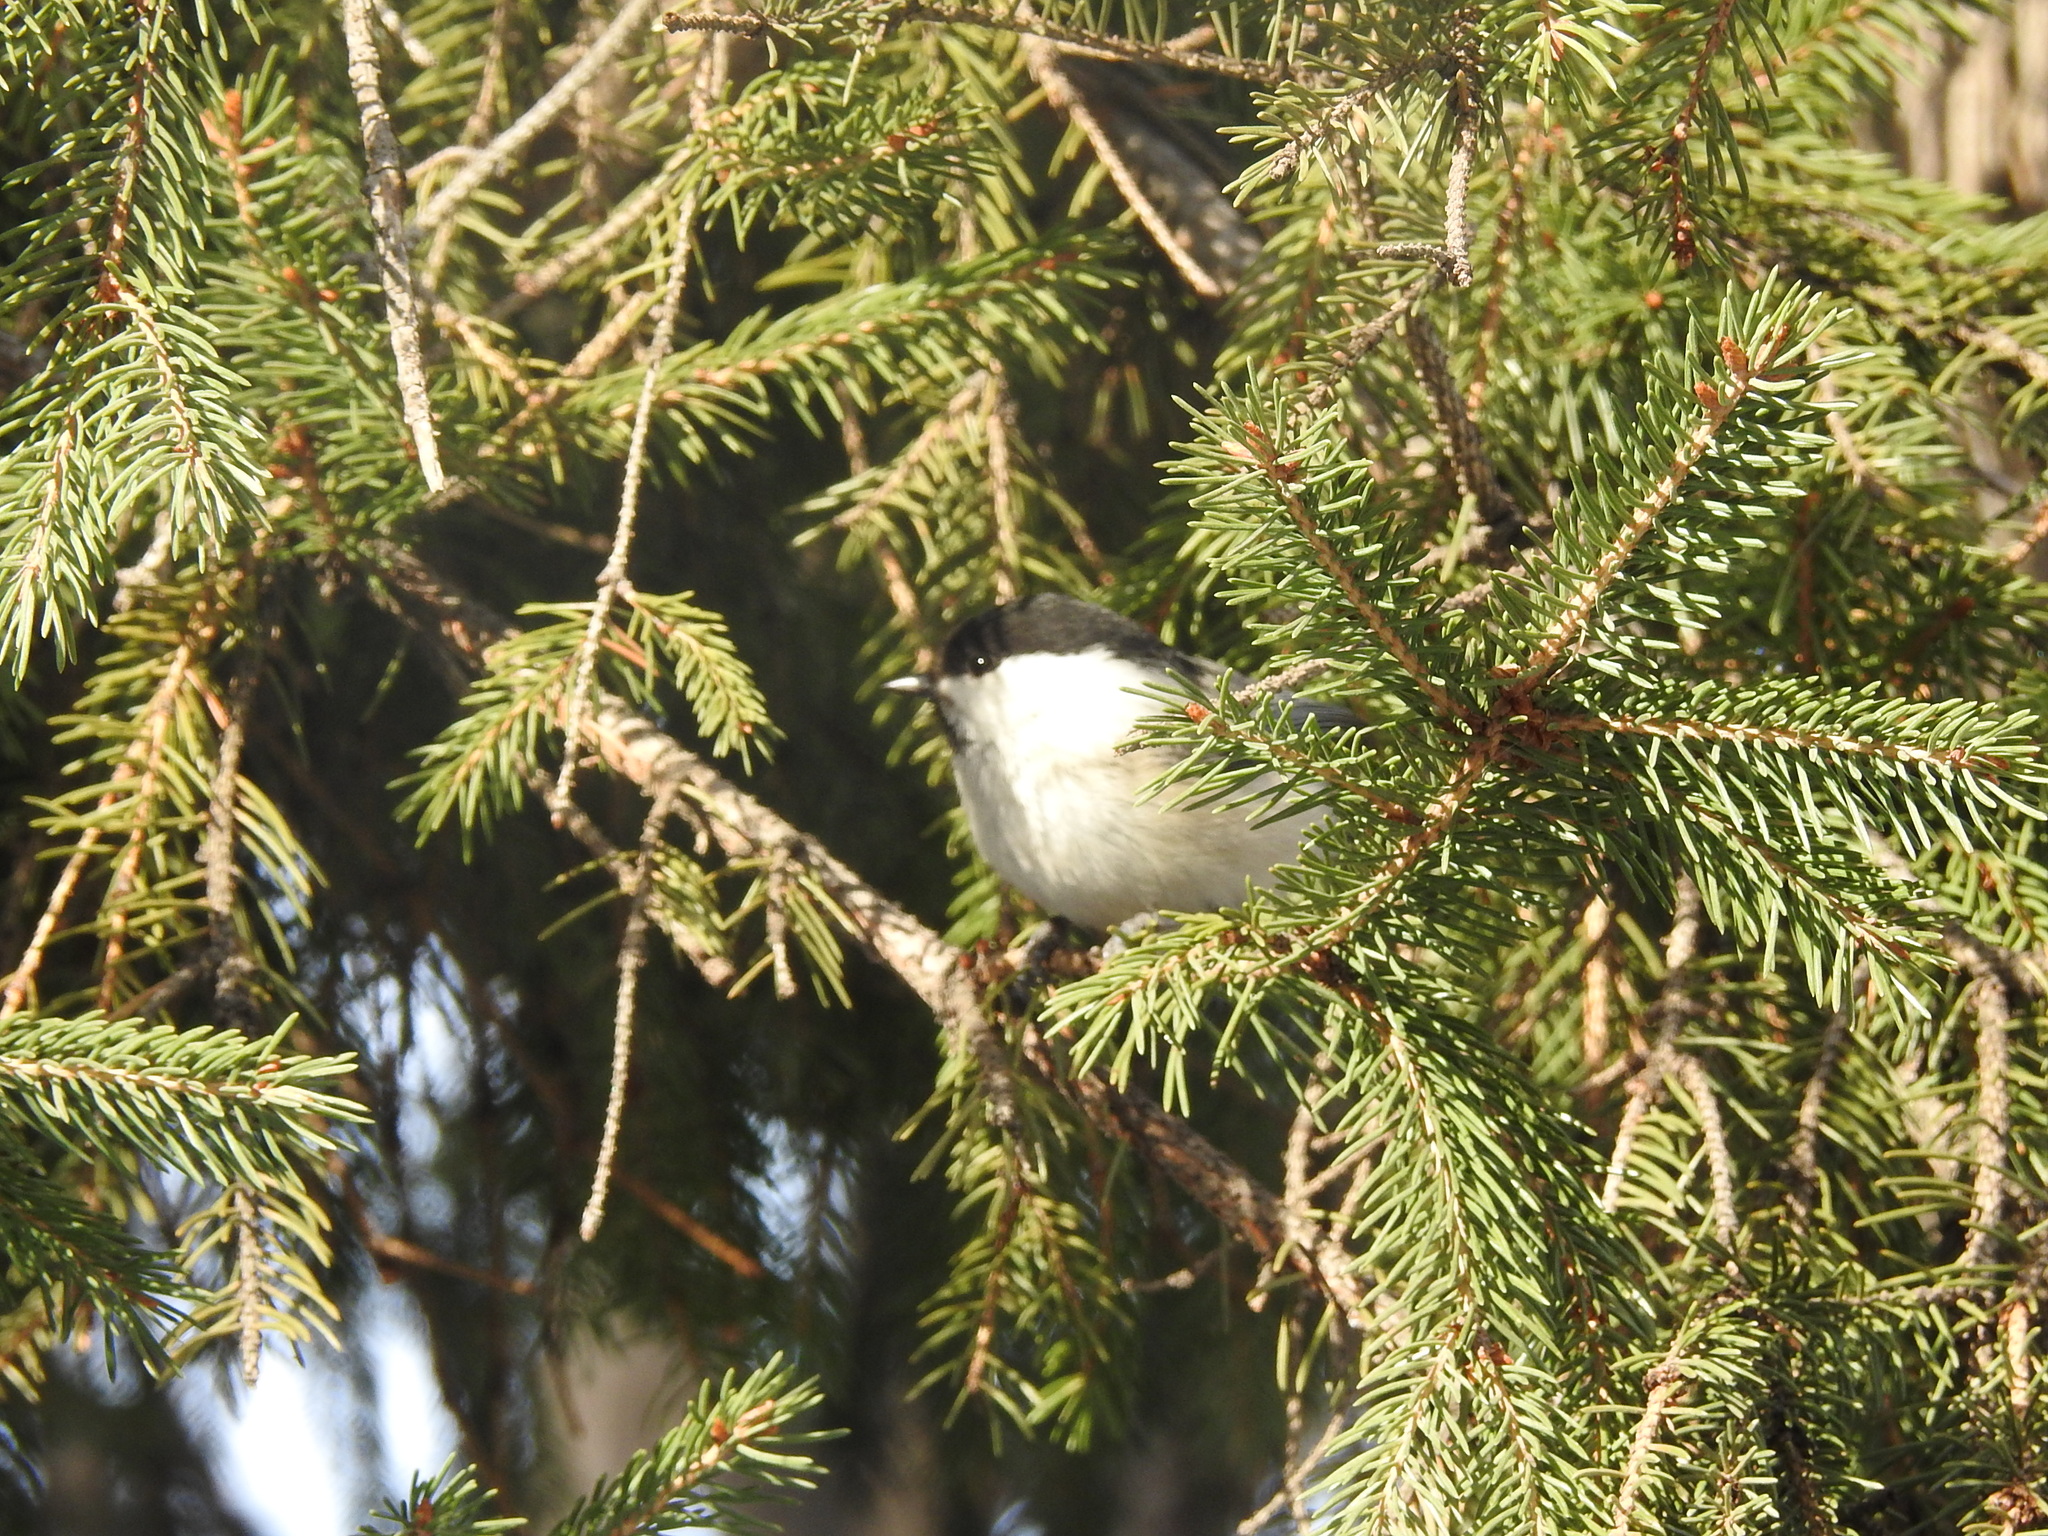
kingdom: Animalia
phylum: Chordata
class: Aves
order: Passeriformes
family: Paridae
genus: Poecile
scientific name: Poecile montanus
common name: Willow tit
